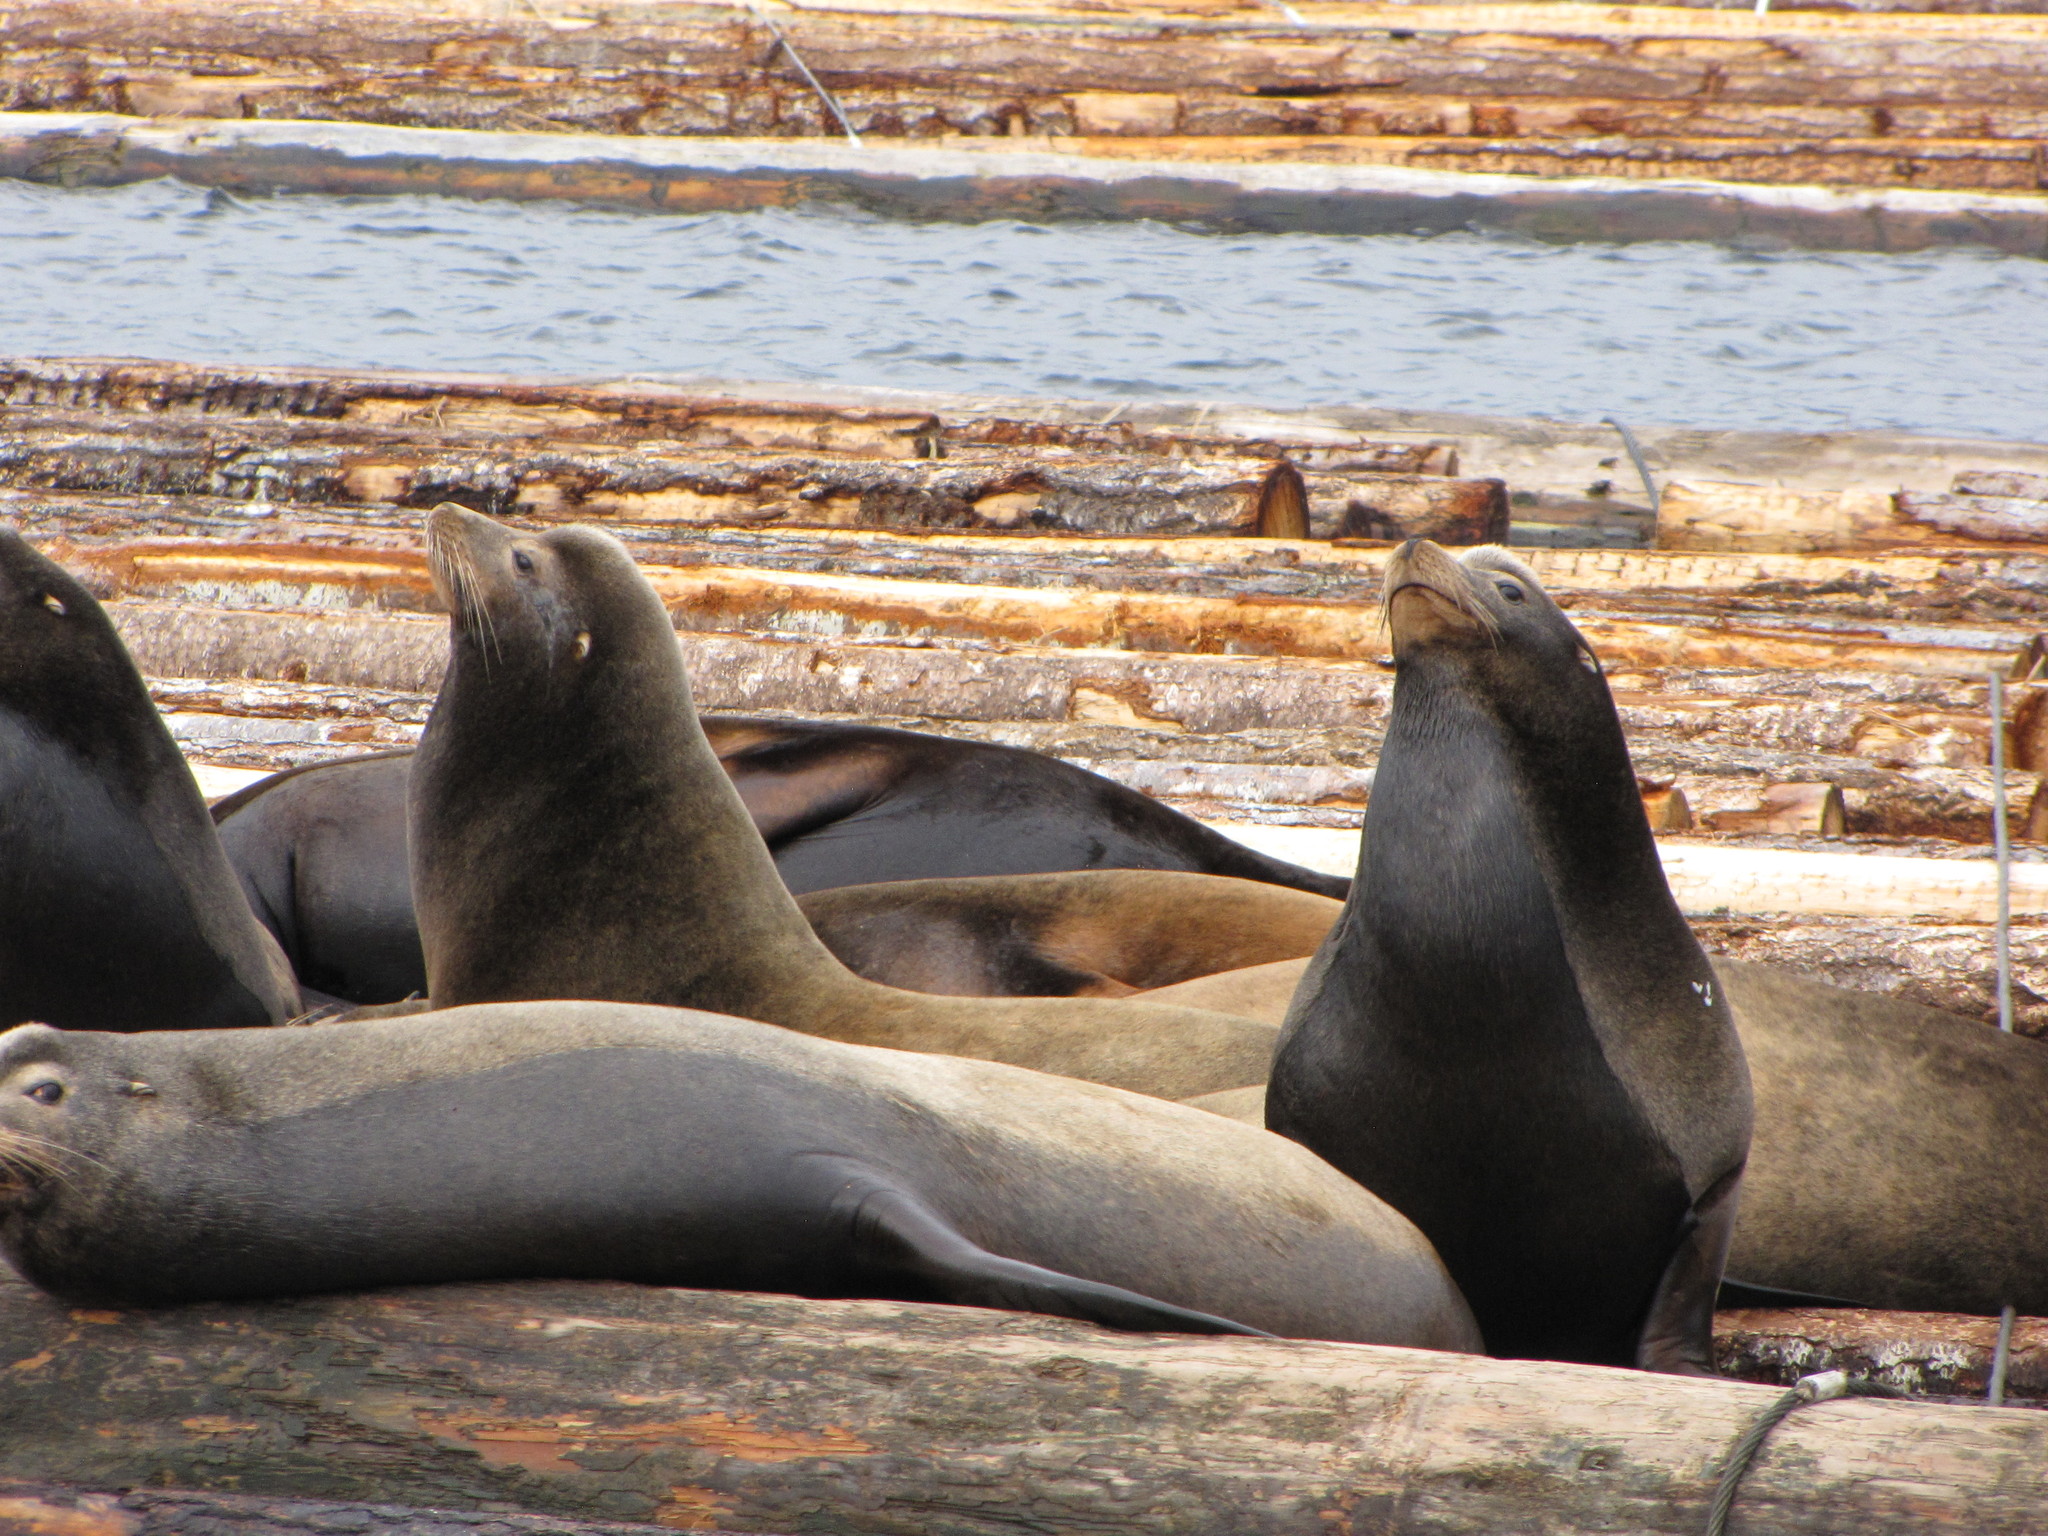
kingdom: Animalia
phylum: Chordata
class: Mammalia
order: Carnivora
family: Otariidae
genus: Zalophus
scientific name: Zalophus californianus
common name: California sea lion
